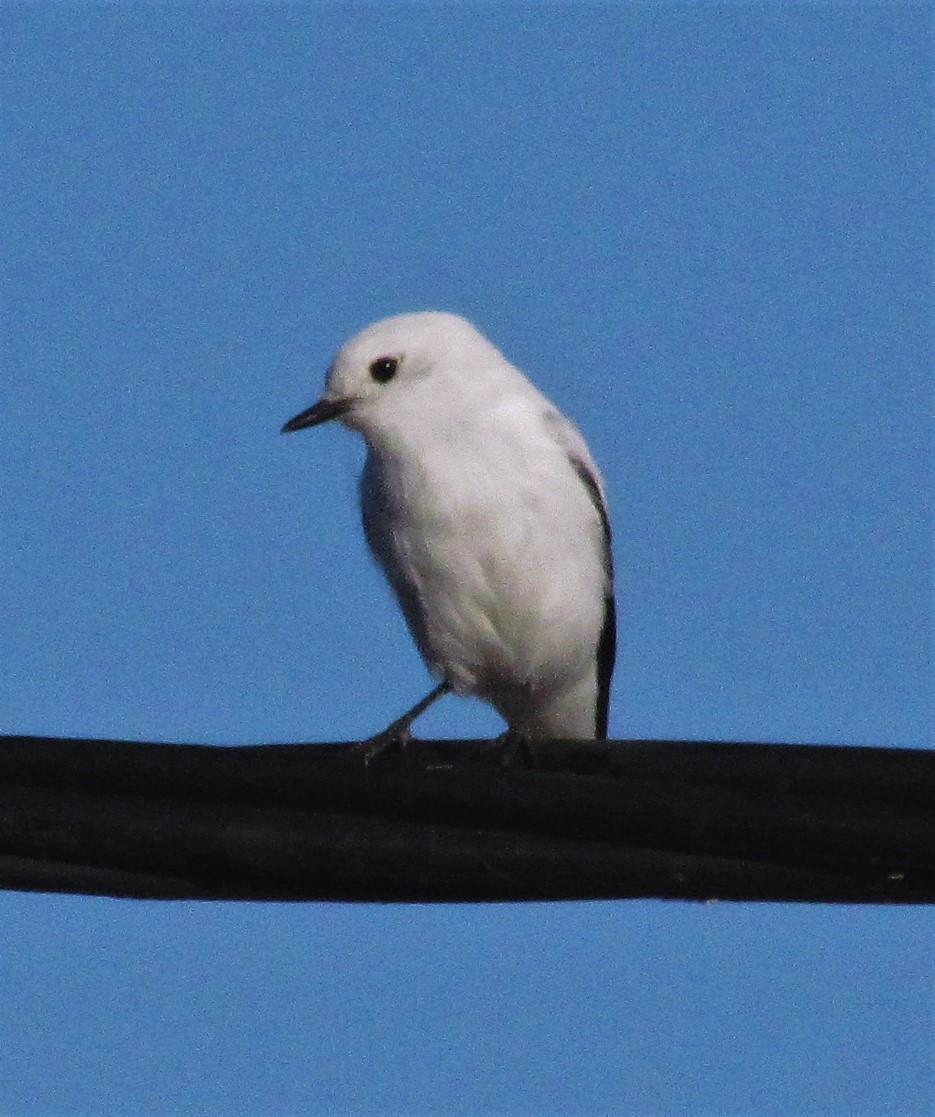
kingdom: Animalia
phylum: Chordata
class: Aves
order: Passeriformes
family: Tyrannidae
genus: Xolmis
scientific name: Xolmis irupero
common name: White monjita
